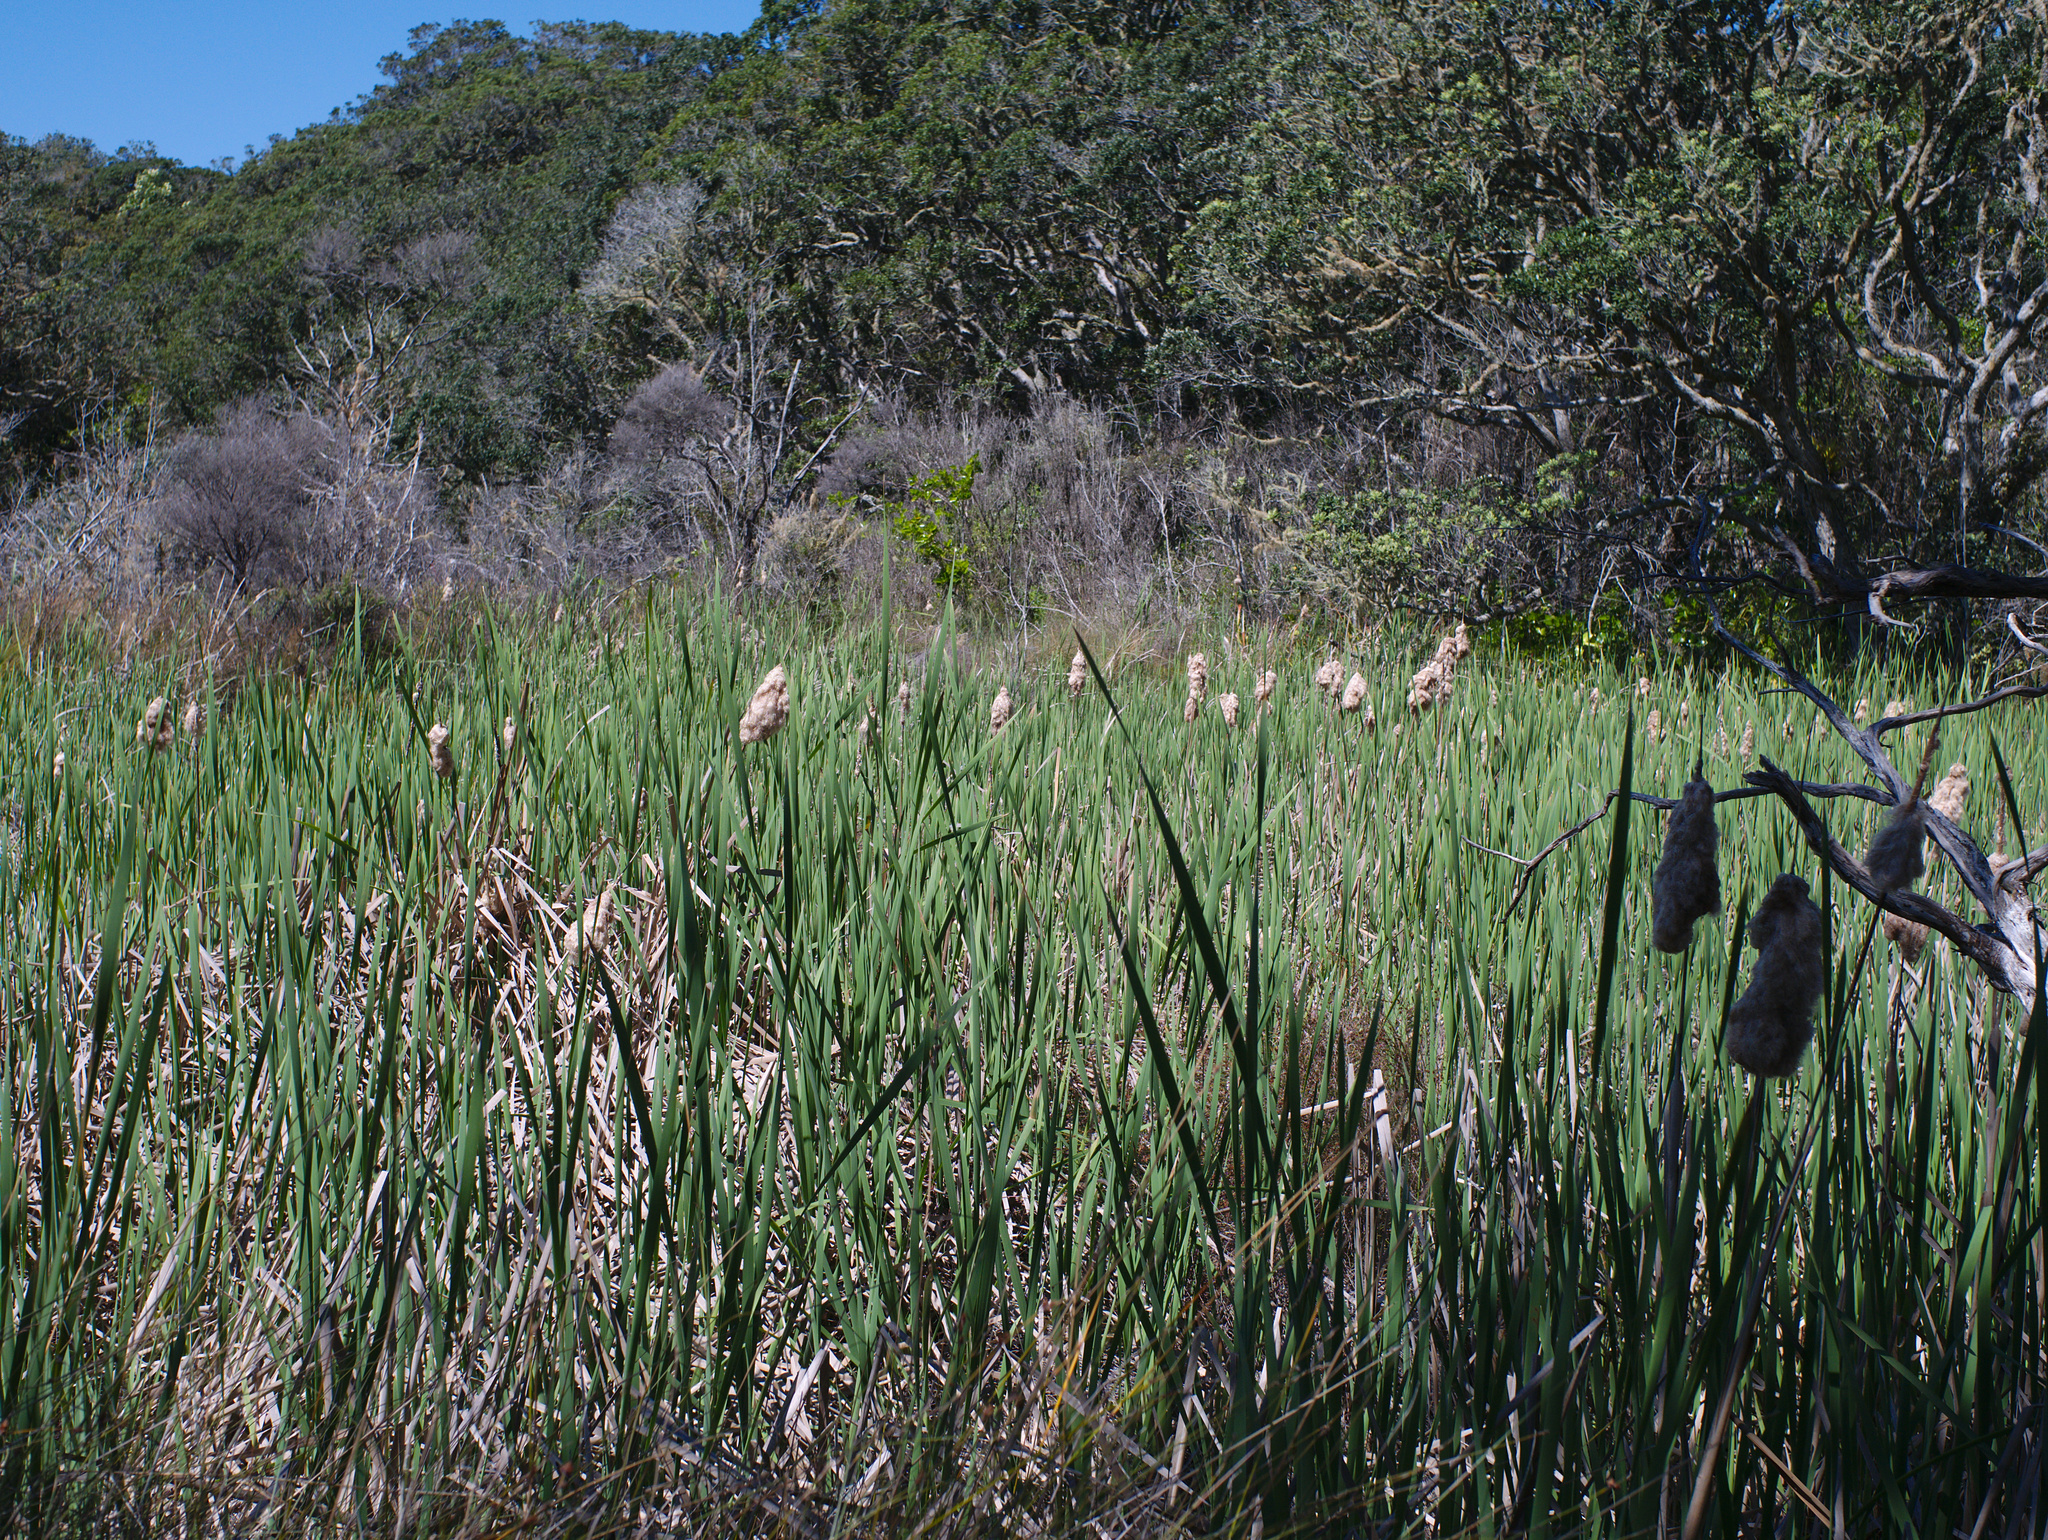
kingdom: Plantae
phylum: Tracheophyta
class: Liliopsida
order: Poales
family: Typhaceae
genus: Typha
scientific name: Typha orientalis
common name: Bullrush
